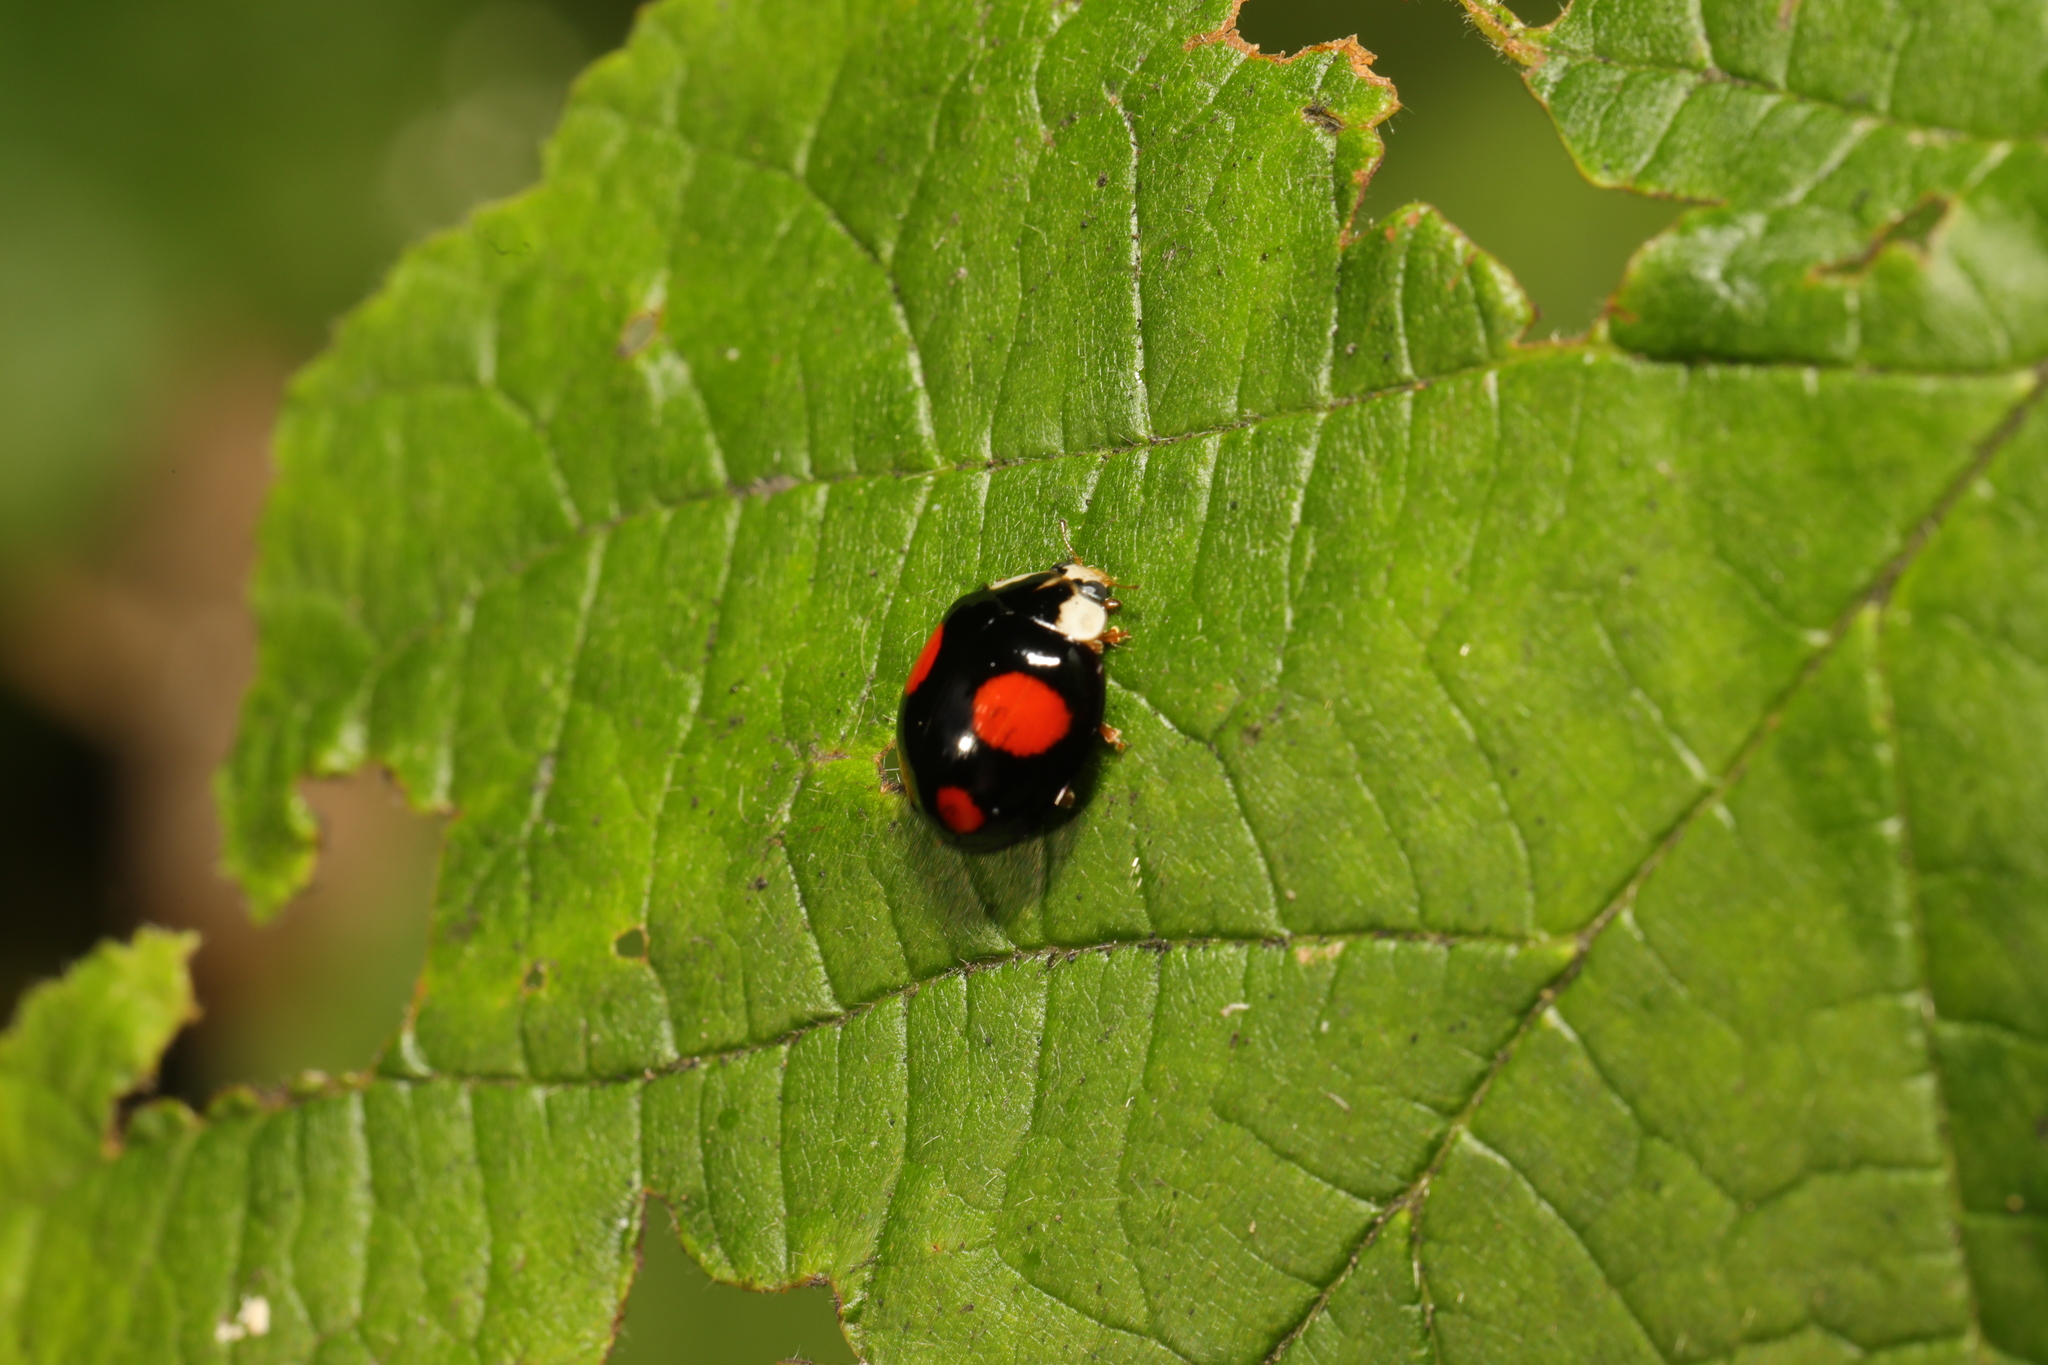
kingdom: Animalia
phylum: Arthropoda
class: Insecta
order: Coleoptera
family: Coccinellidae
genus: Harmonia
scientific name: Harmonia axyridis
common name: Harlequin ladybird
